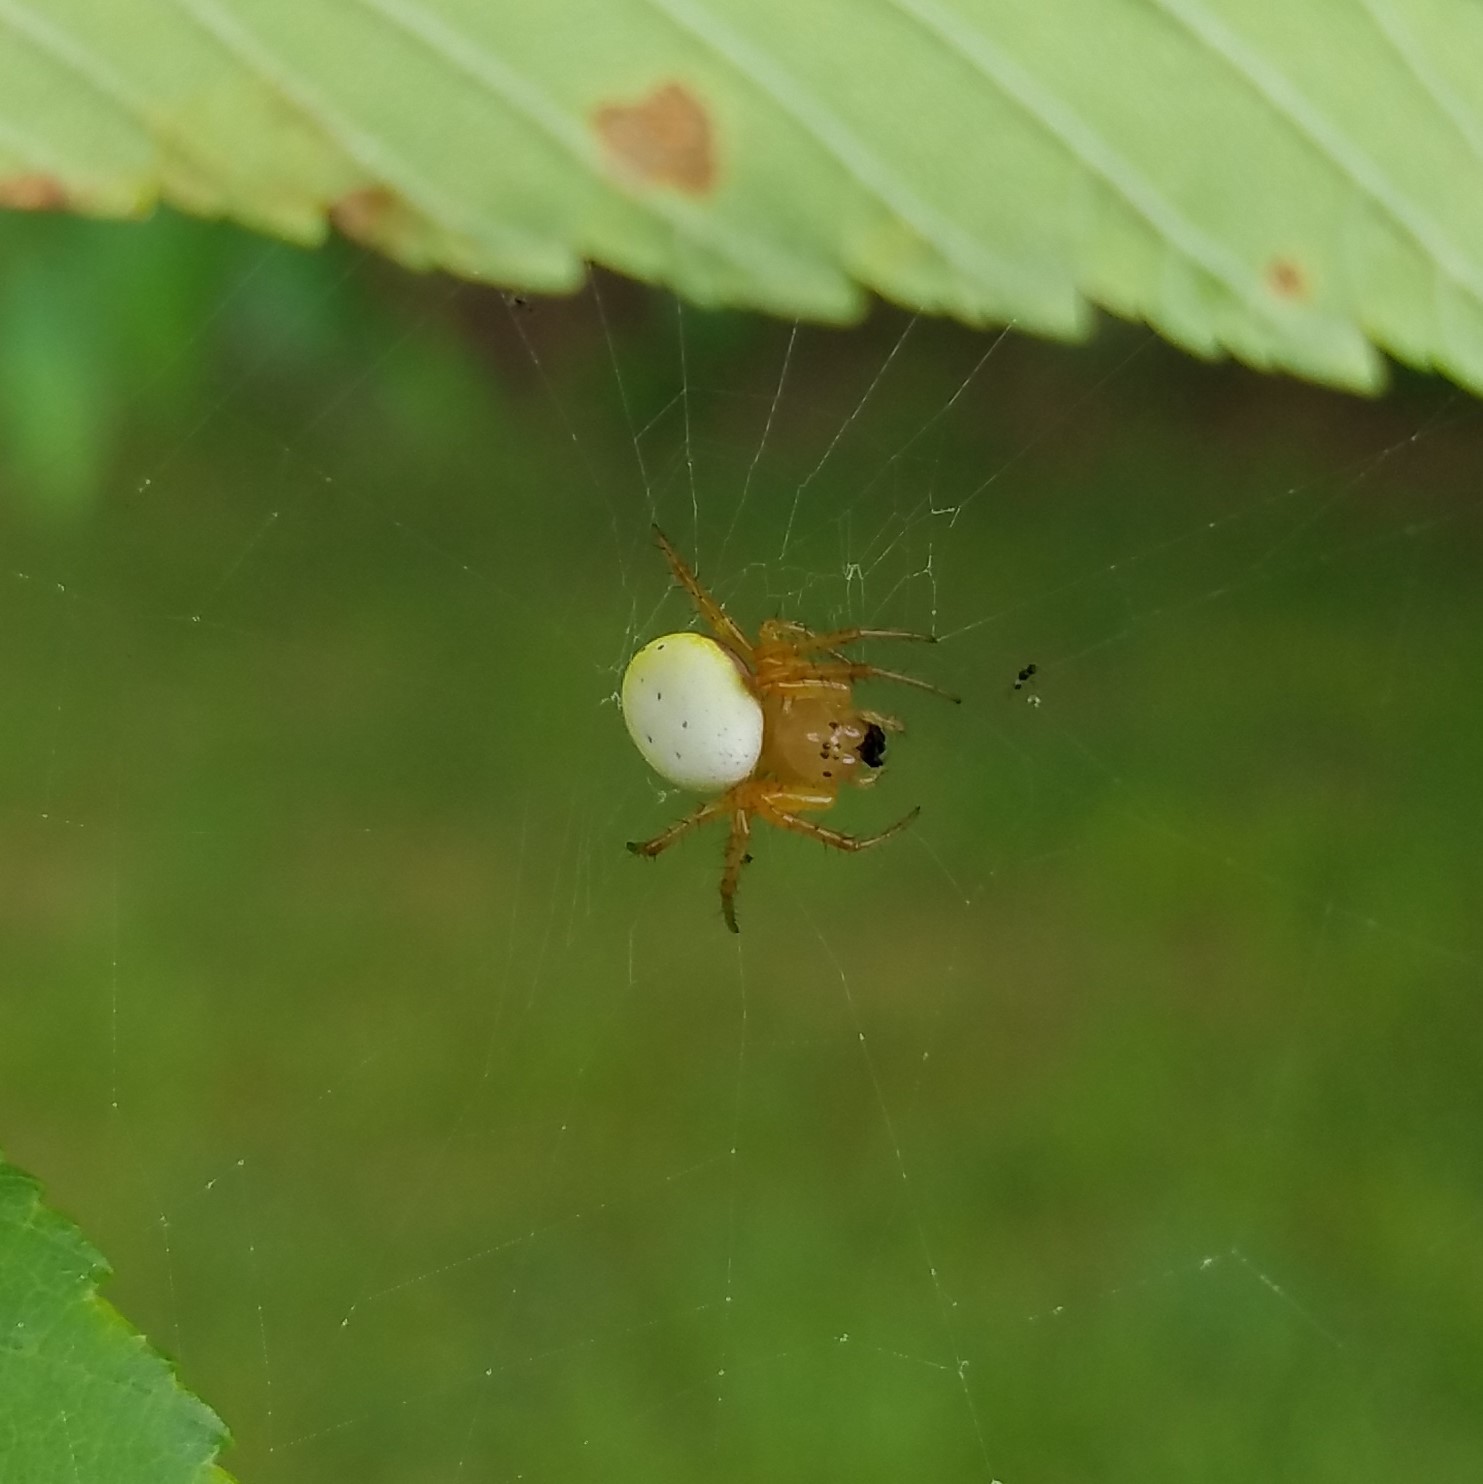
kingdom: Animalia
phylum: Arthropoda
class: Arachnida
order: Araneae
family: Araneidae
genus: Araniella
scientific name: Araniella displicata
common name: Sixspotted orb weaver
